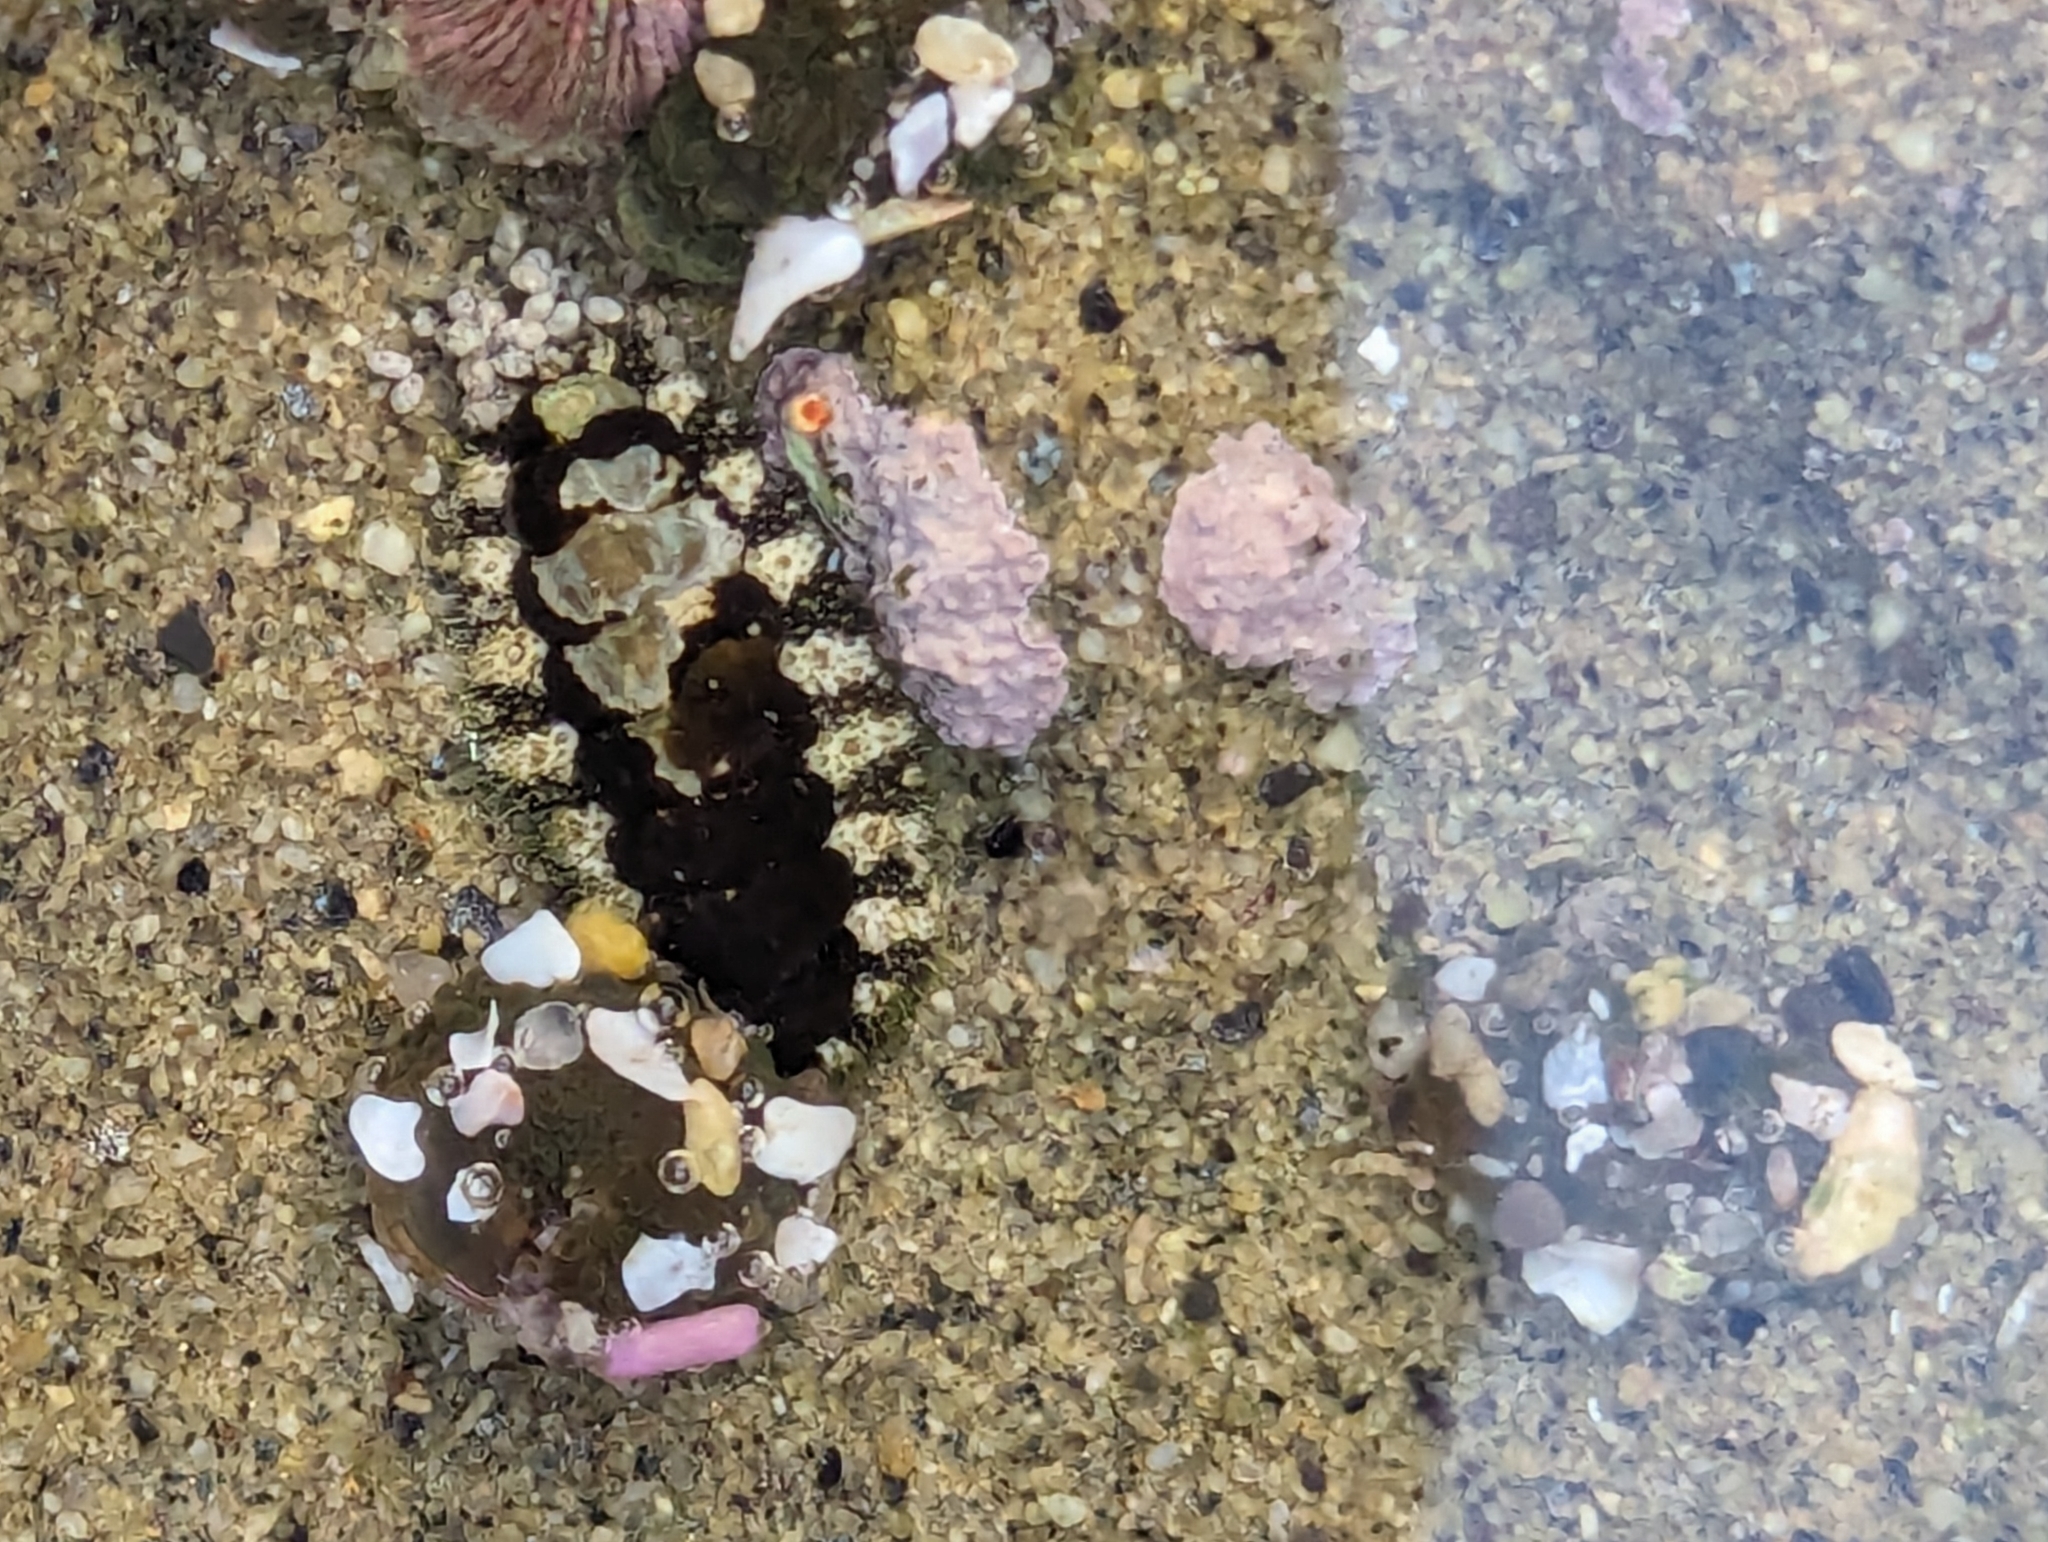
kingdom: Animalia
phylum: Mollusca
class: Polyplacophora
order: Chitonida
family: Tonicellidae
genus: Nuttallina
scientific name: Nuttallina californica
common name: California nuttall chiton
